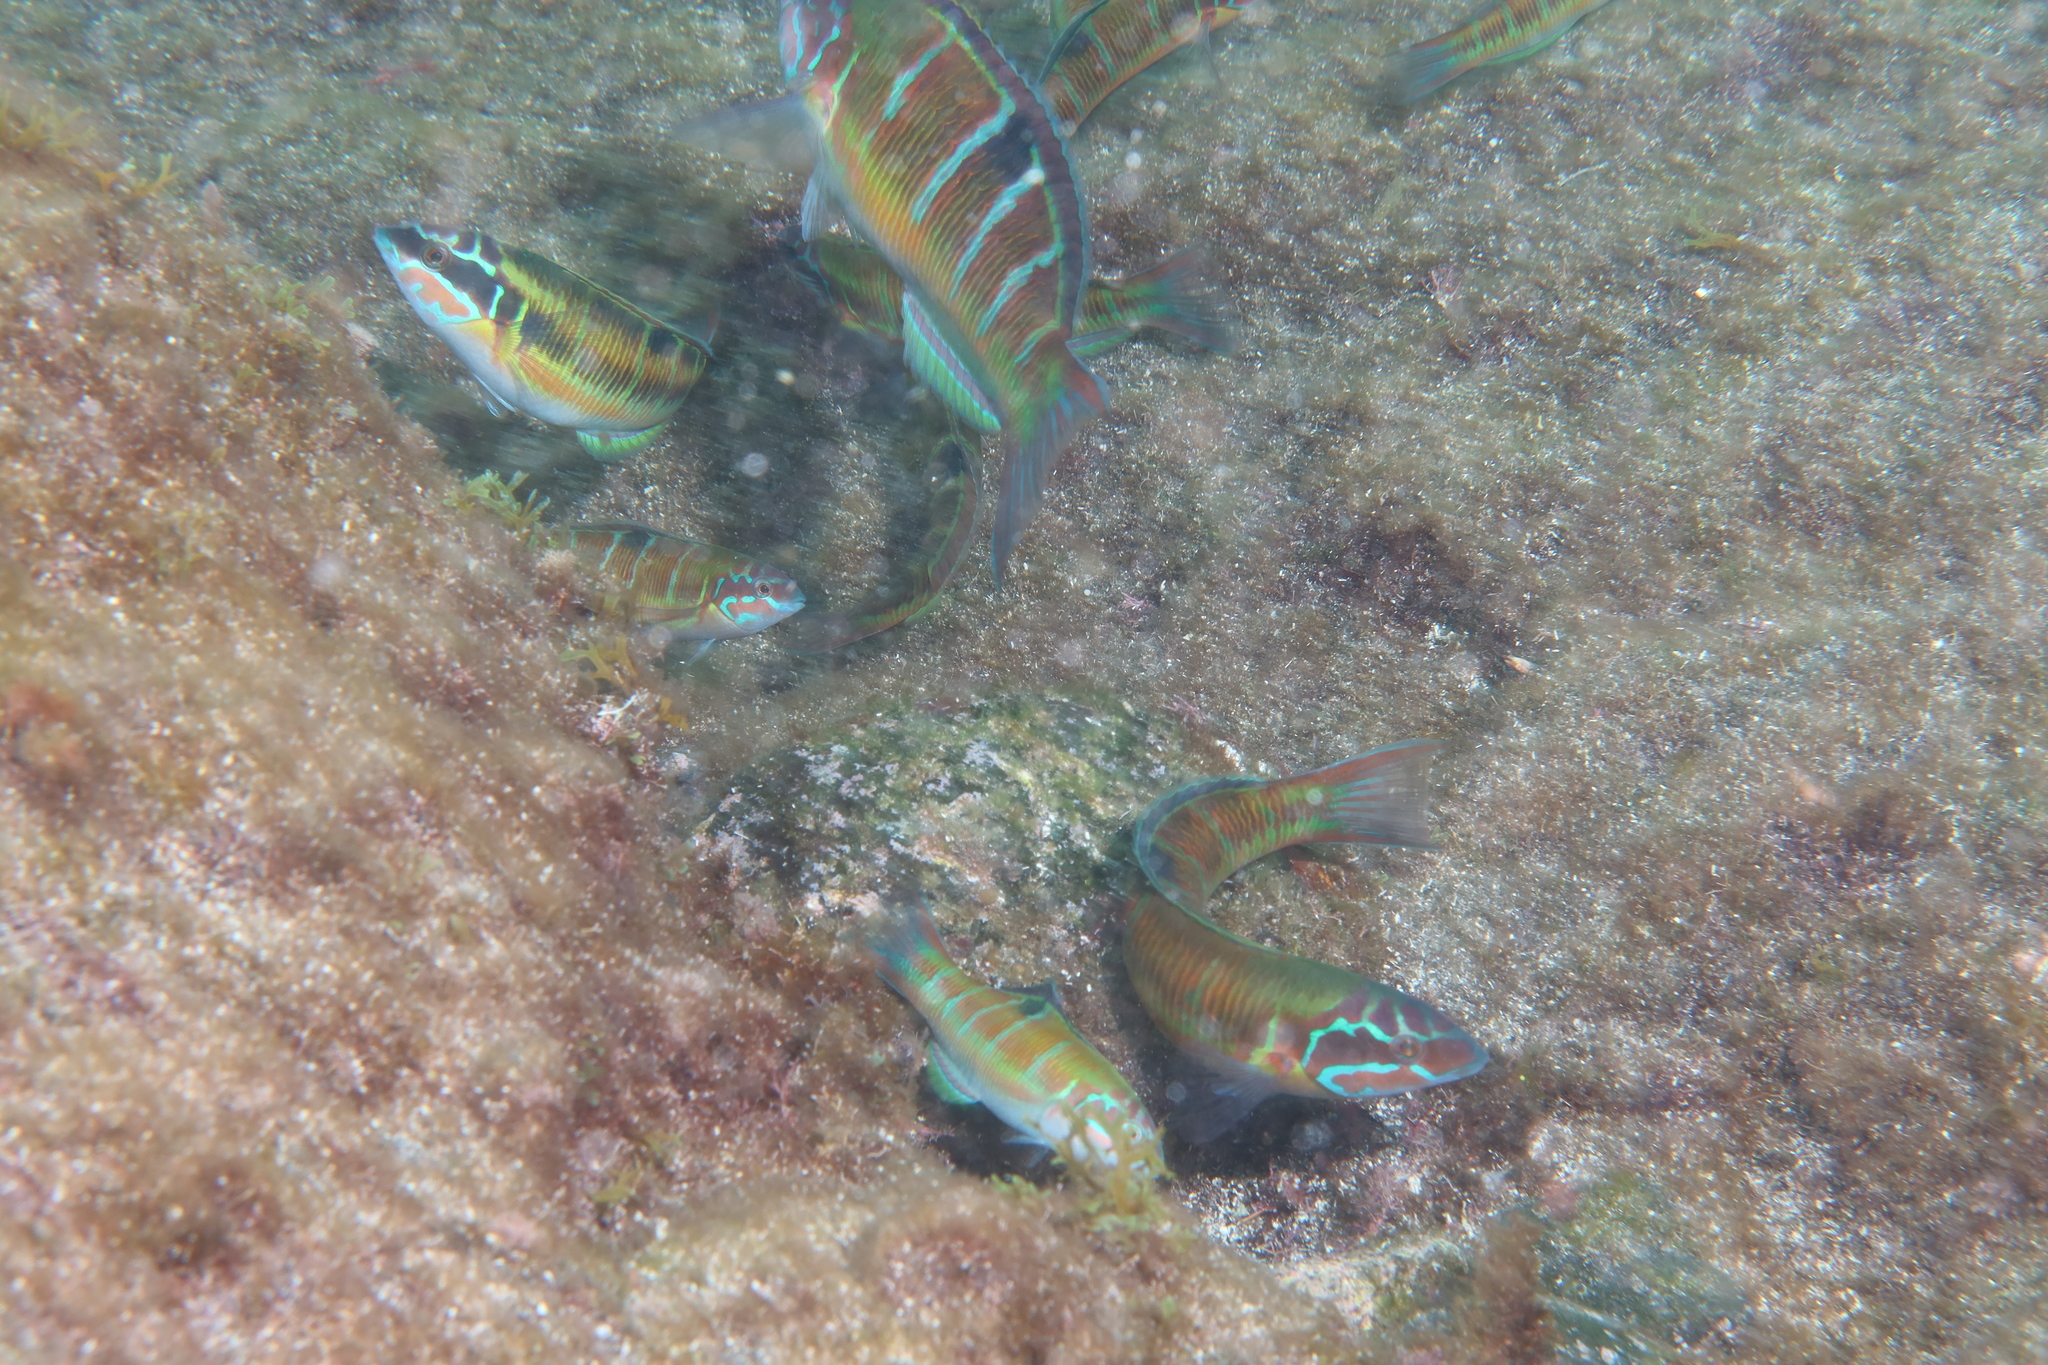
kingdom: Animalia
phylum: Chordata
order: Perciformes
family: Labridae
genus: Thalassoma
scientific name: Thalassoma pavo
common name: Ornate wrasse
